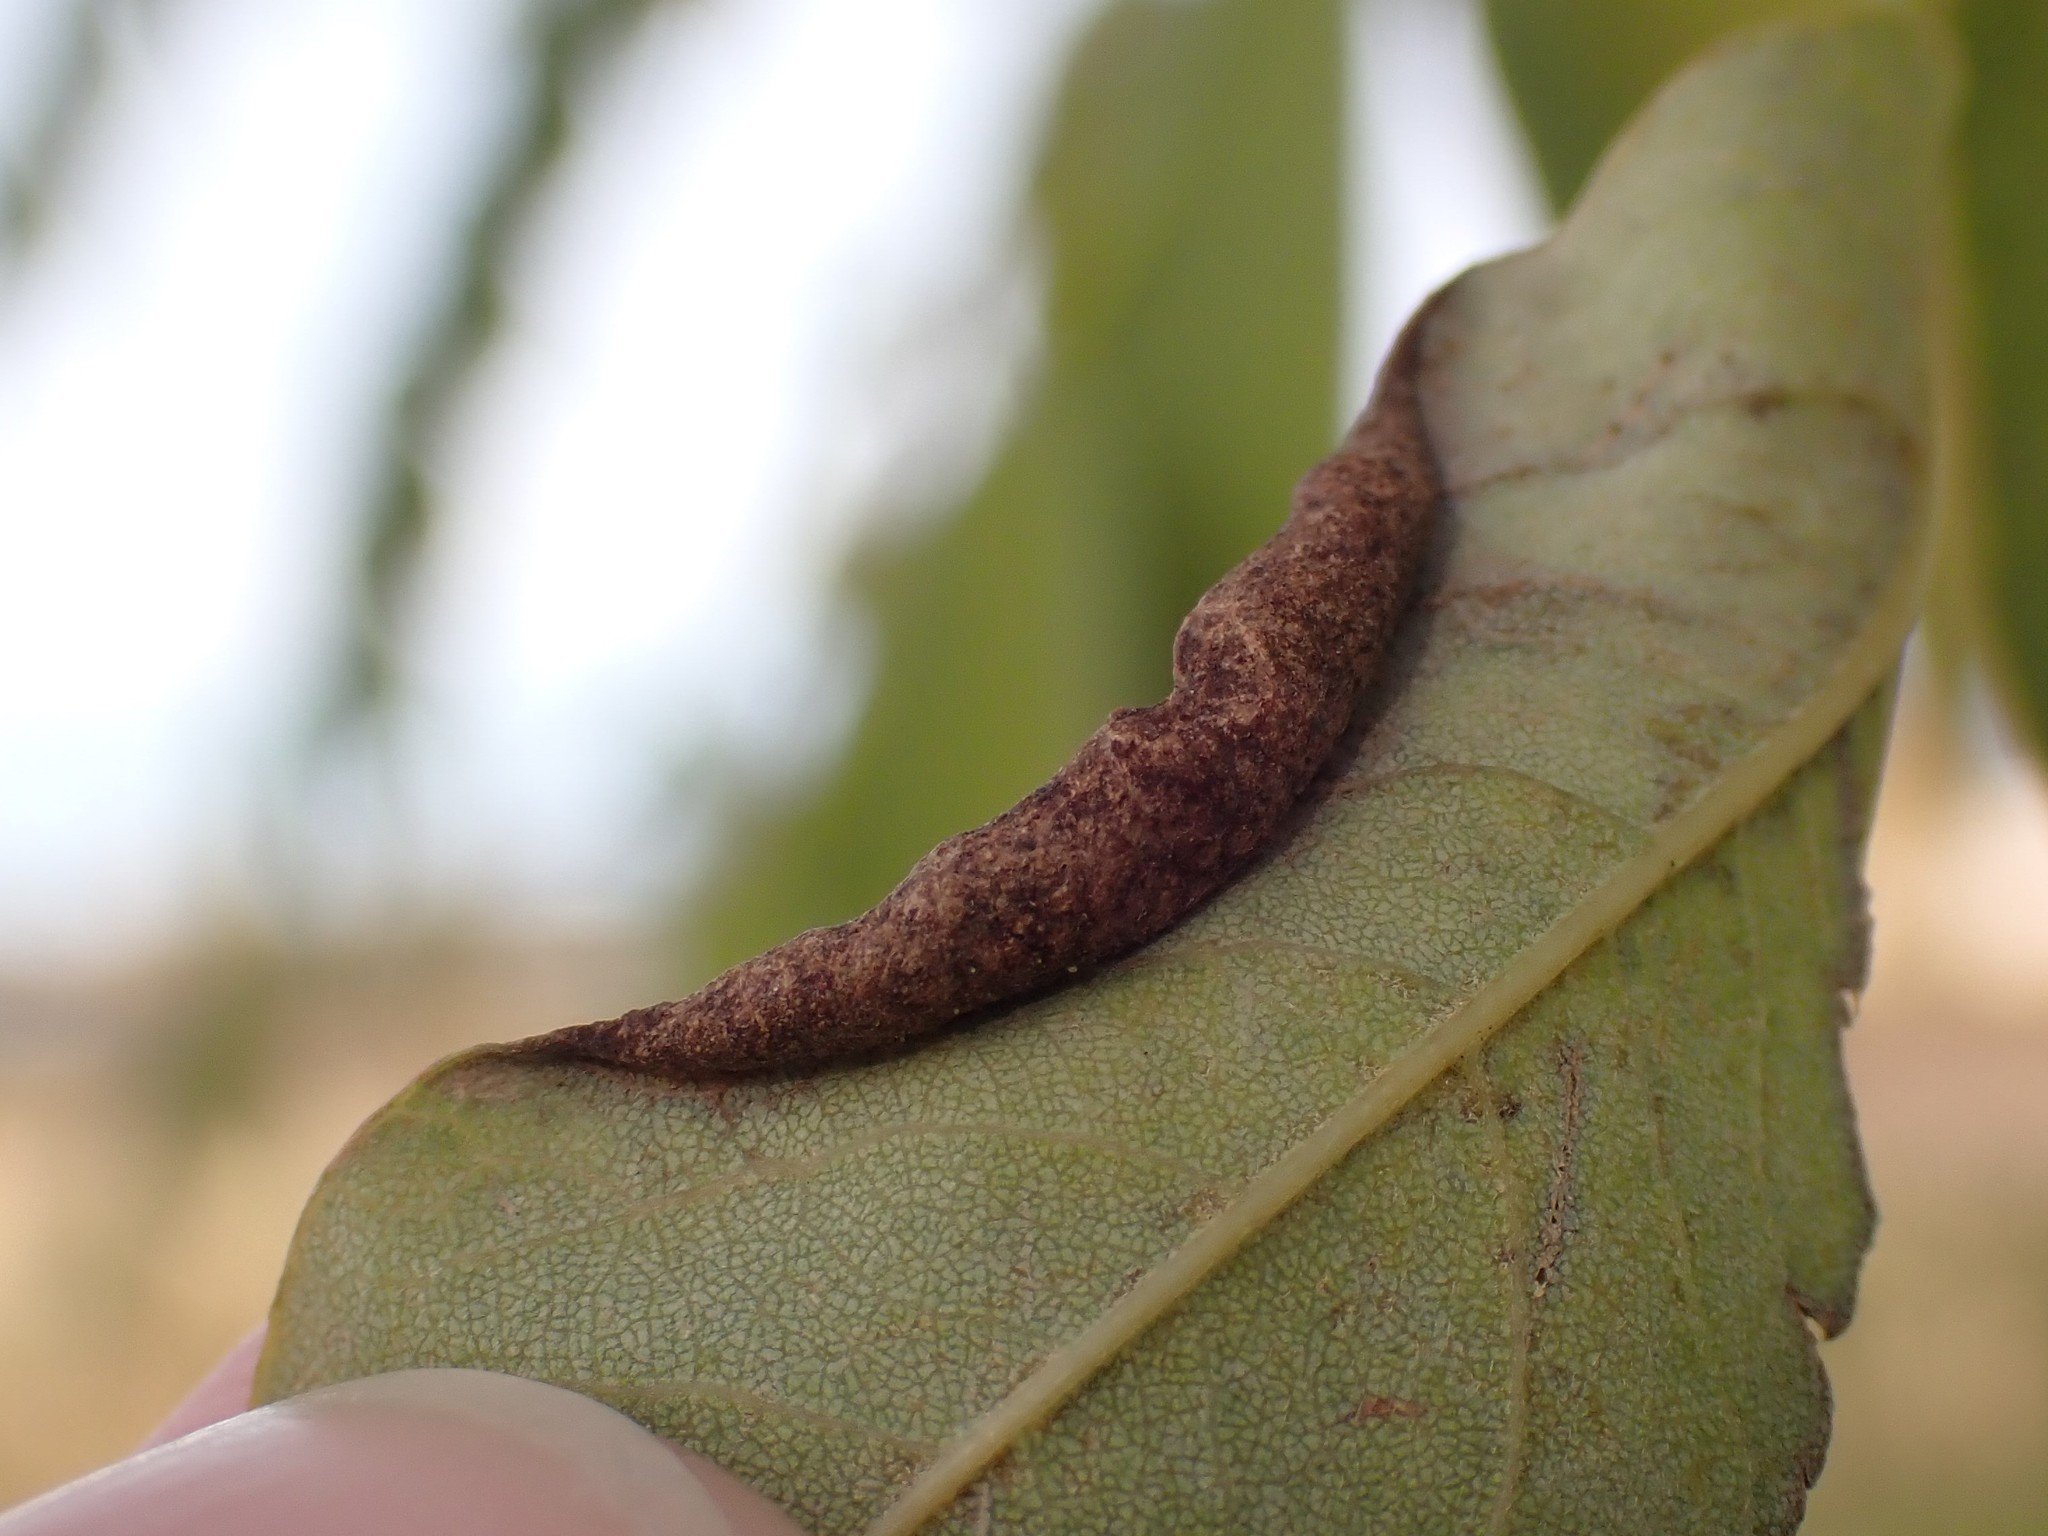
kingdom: Animalia
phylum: Arthropoda
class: Insecta
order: Diptera
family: Cecidomyiidae
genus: Obolodiplosis
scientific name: Obolodiplosis robiniae
